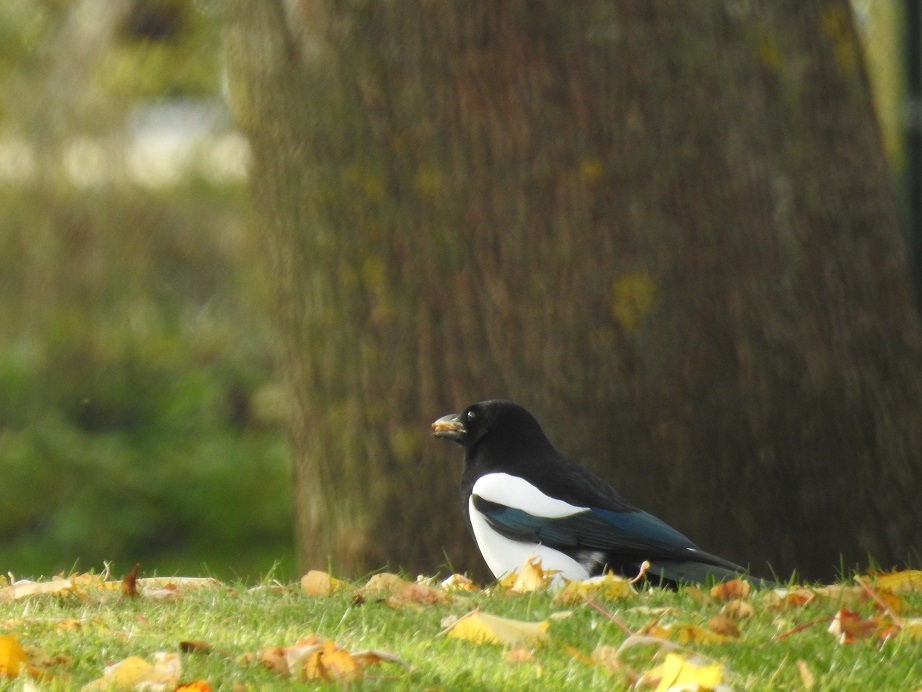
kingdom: Animalia
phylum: Chordata
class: Aves
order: Passeriformes
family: Corvidae
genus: Pica
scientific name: Pica pica
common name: Eurasian magpie
